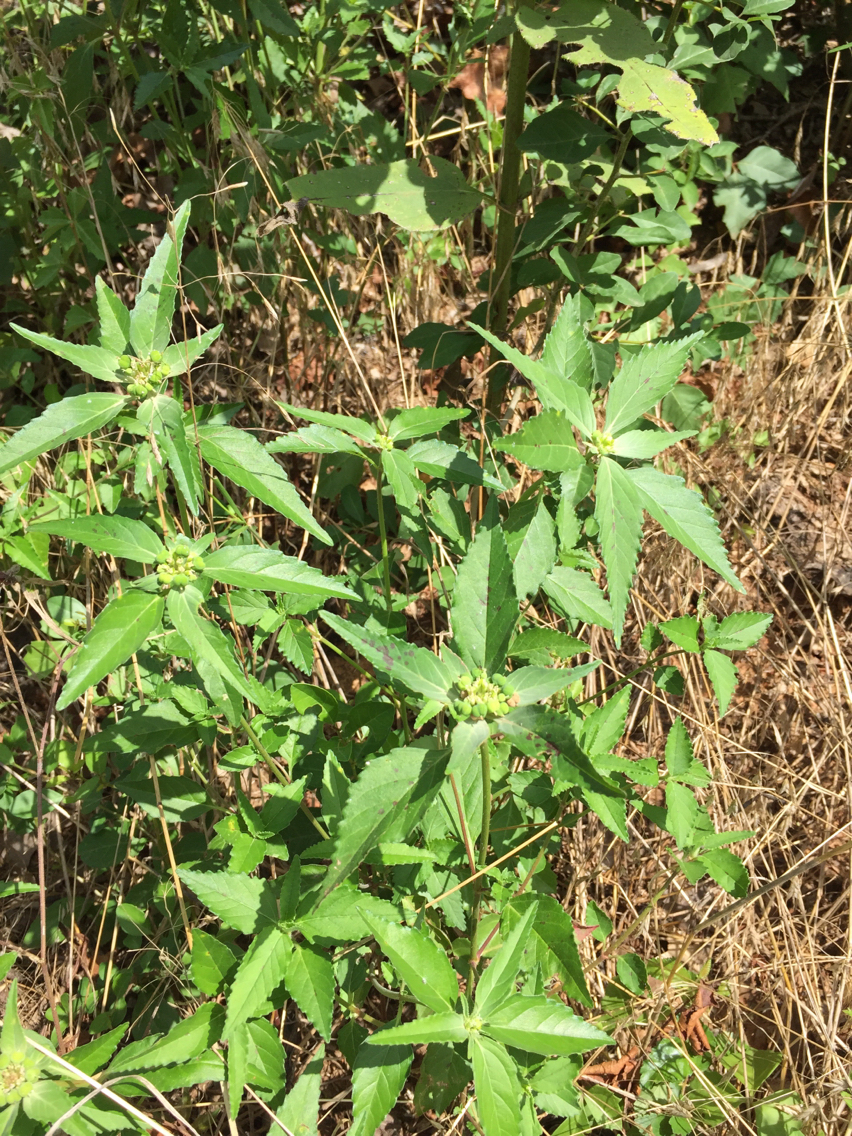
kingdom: Plantae
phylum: Tracheophyta
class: Magnoliopsida
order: Malpighiales
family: Euphorbiaceae
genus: Euphorbia
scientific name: Euphorbia dentata
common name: Dentate spurge
